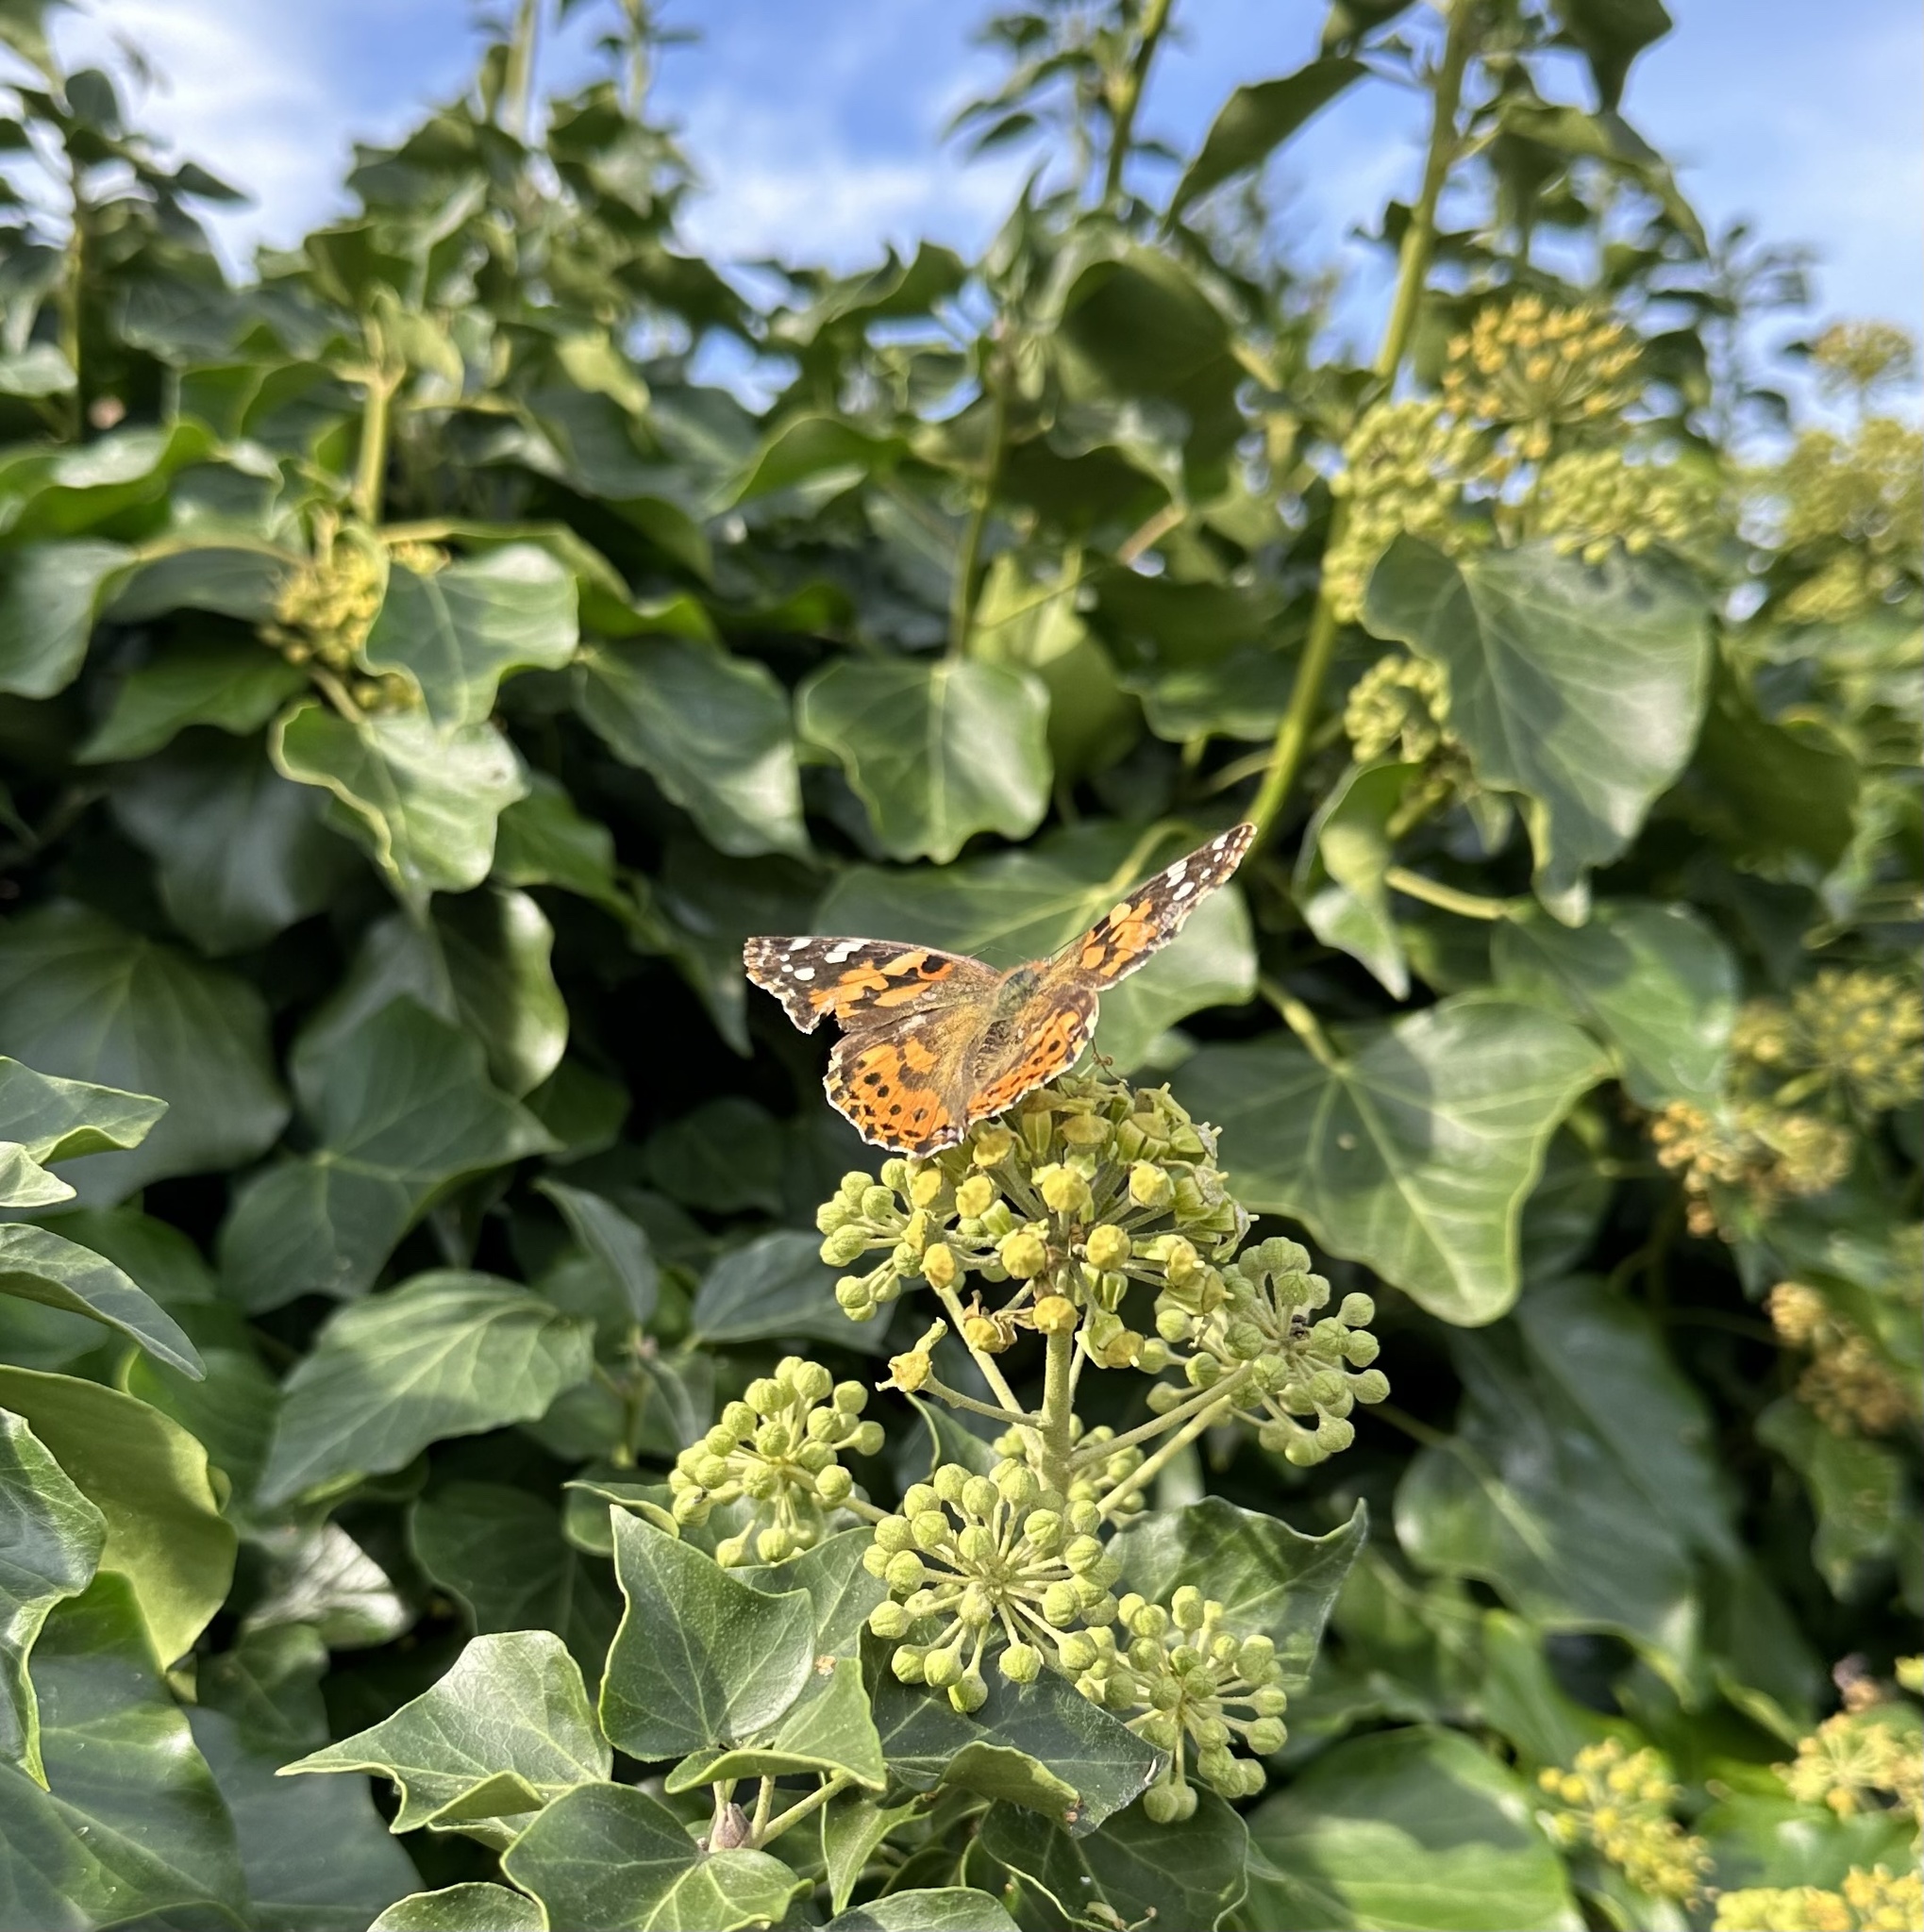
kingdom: Animalia
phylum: Arthropoda
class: Insecta
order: Lepidoptera
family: Nymphalidae
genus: Vanessa
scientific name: Vanessa cardui
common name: Painted lady
